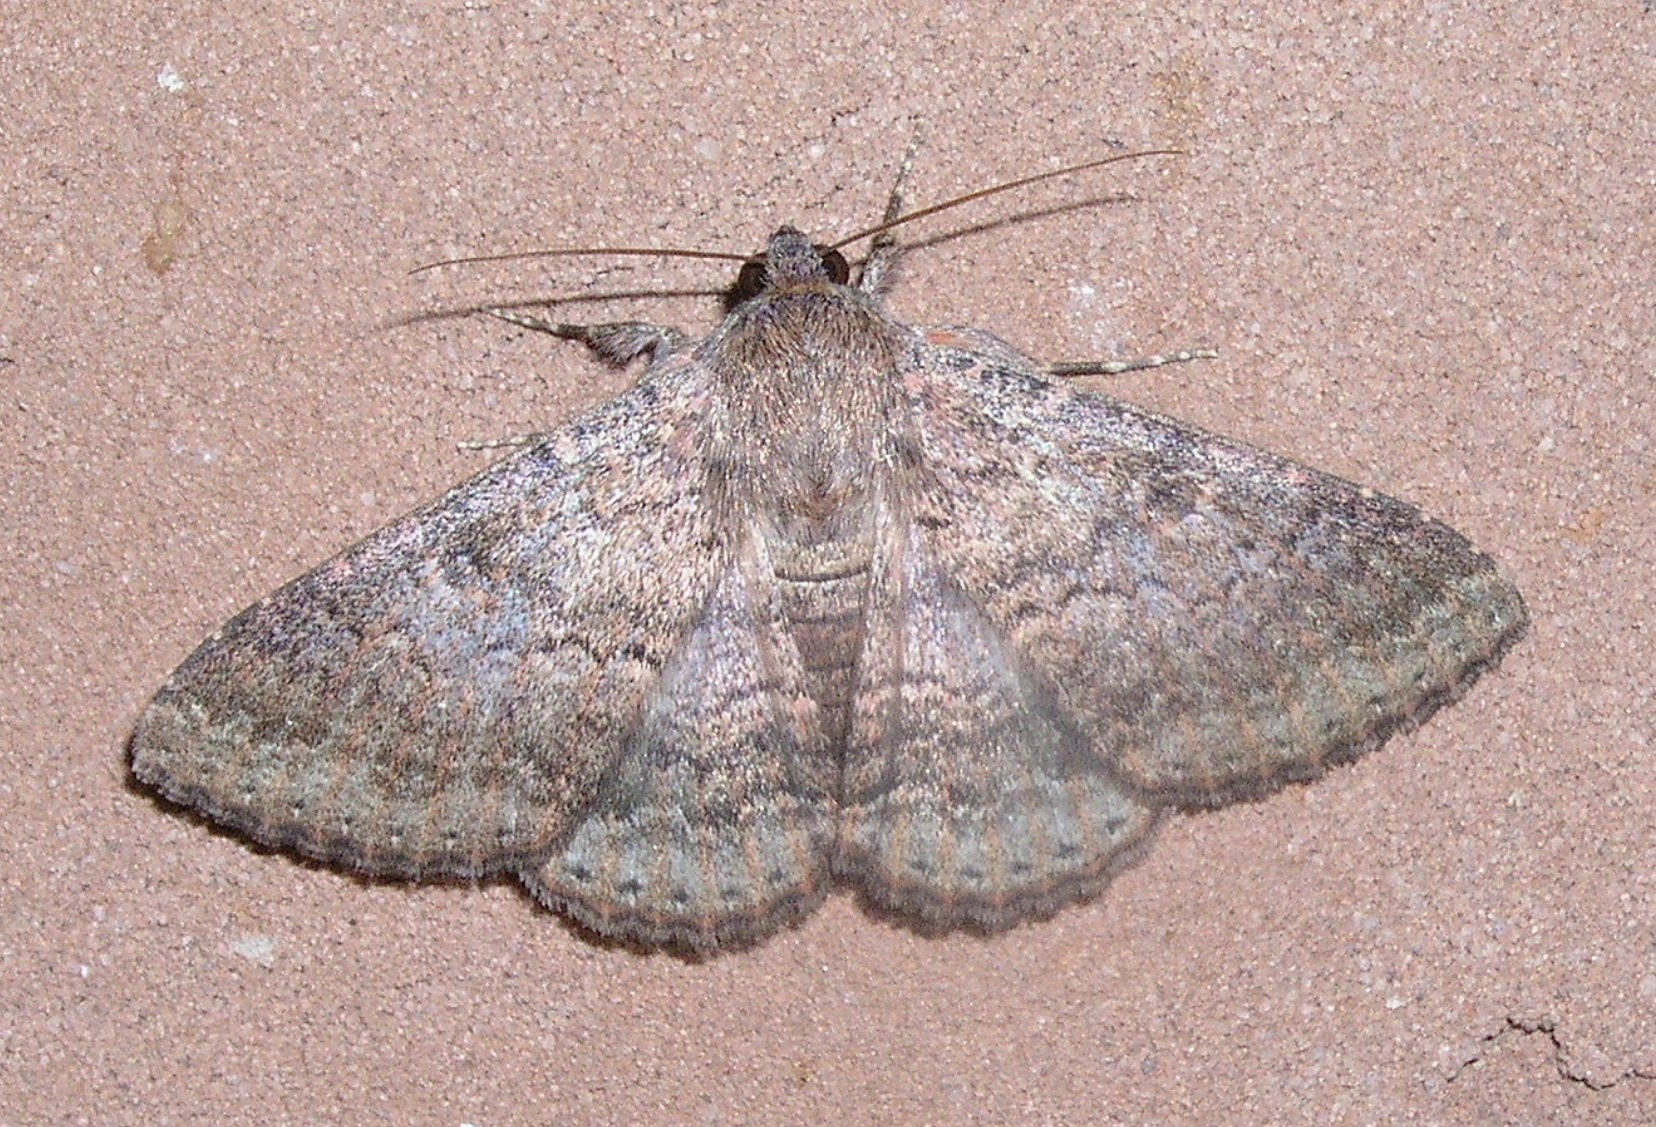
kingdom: Animalia
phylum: Arthropoda
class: Insecta
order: Lepidoptera
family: Erebidae
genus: Eudesmeola
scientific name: Eudesmeola lawsoni
